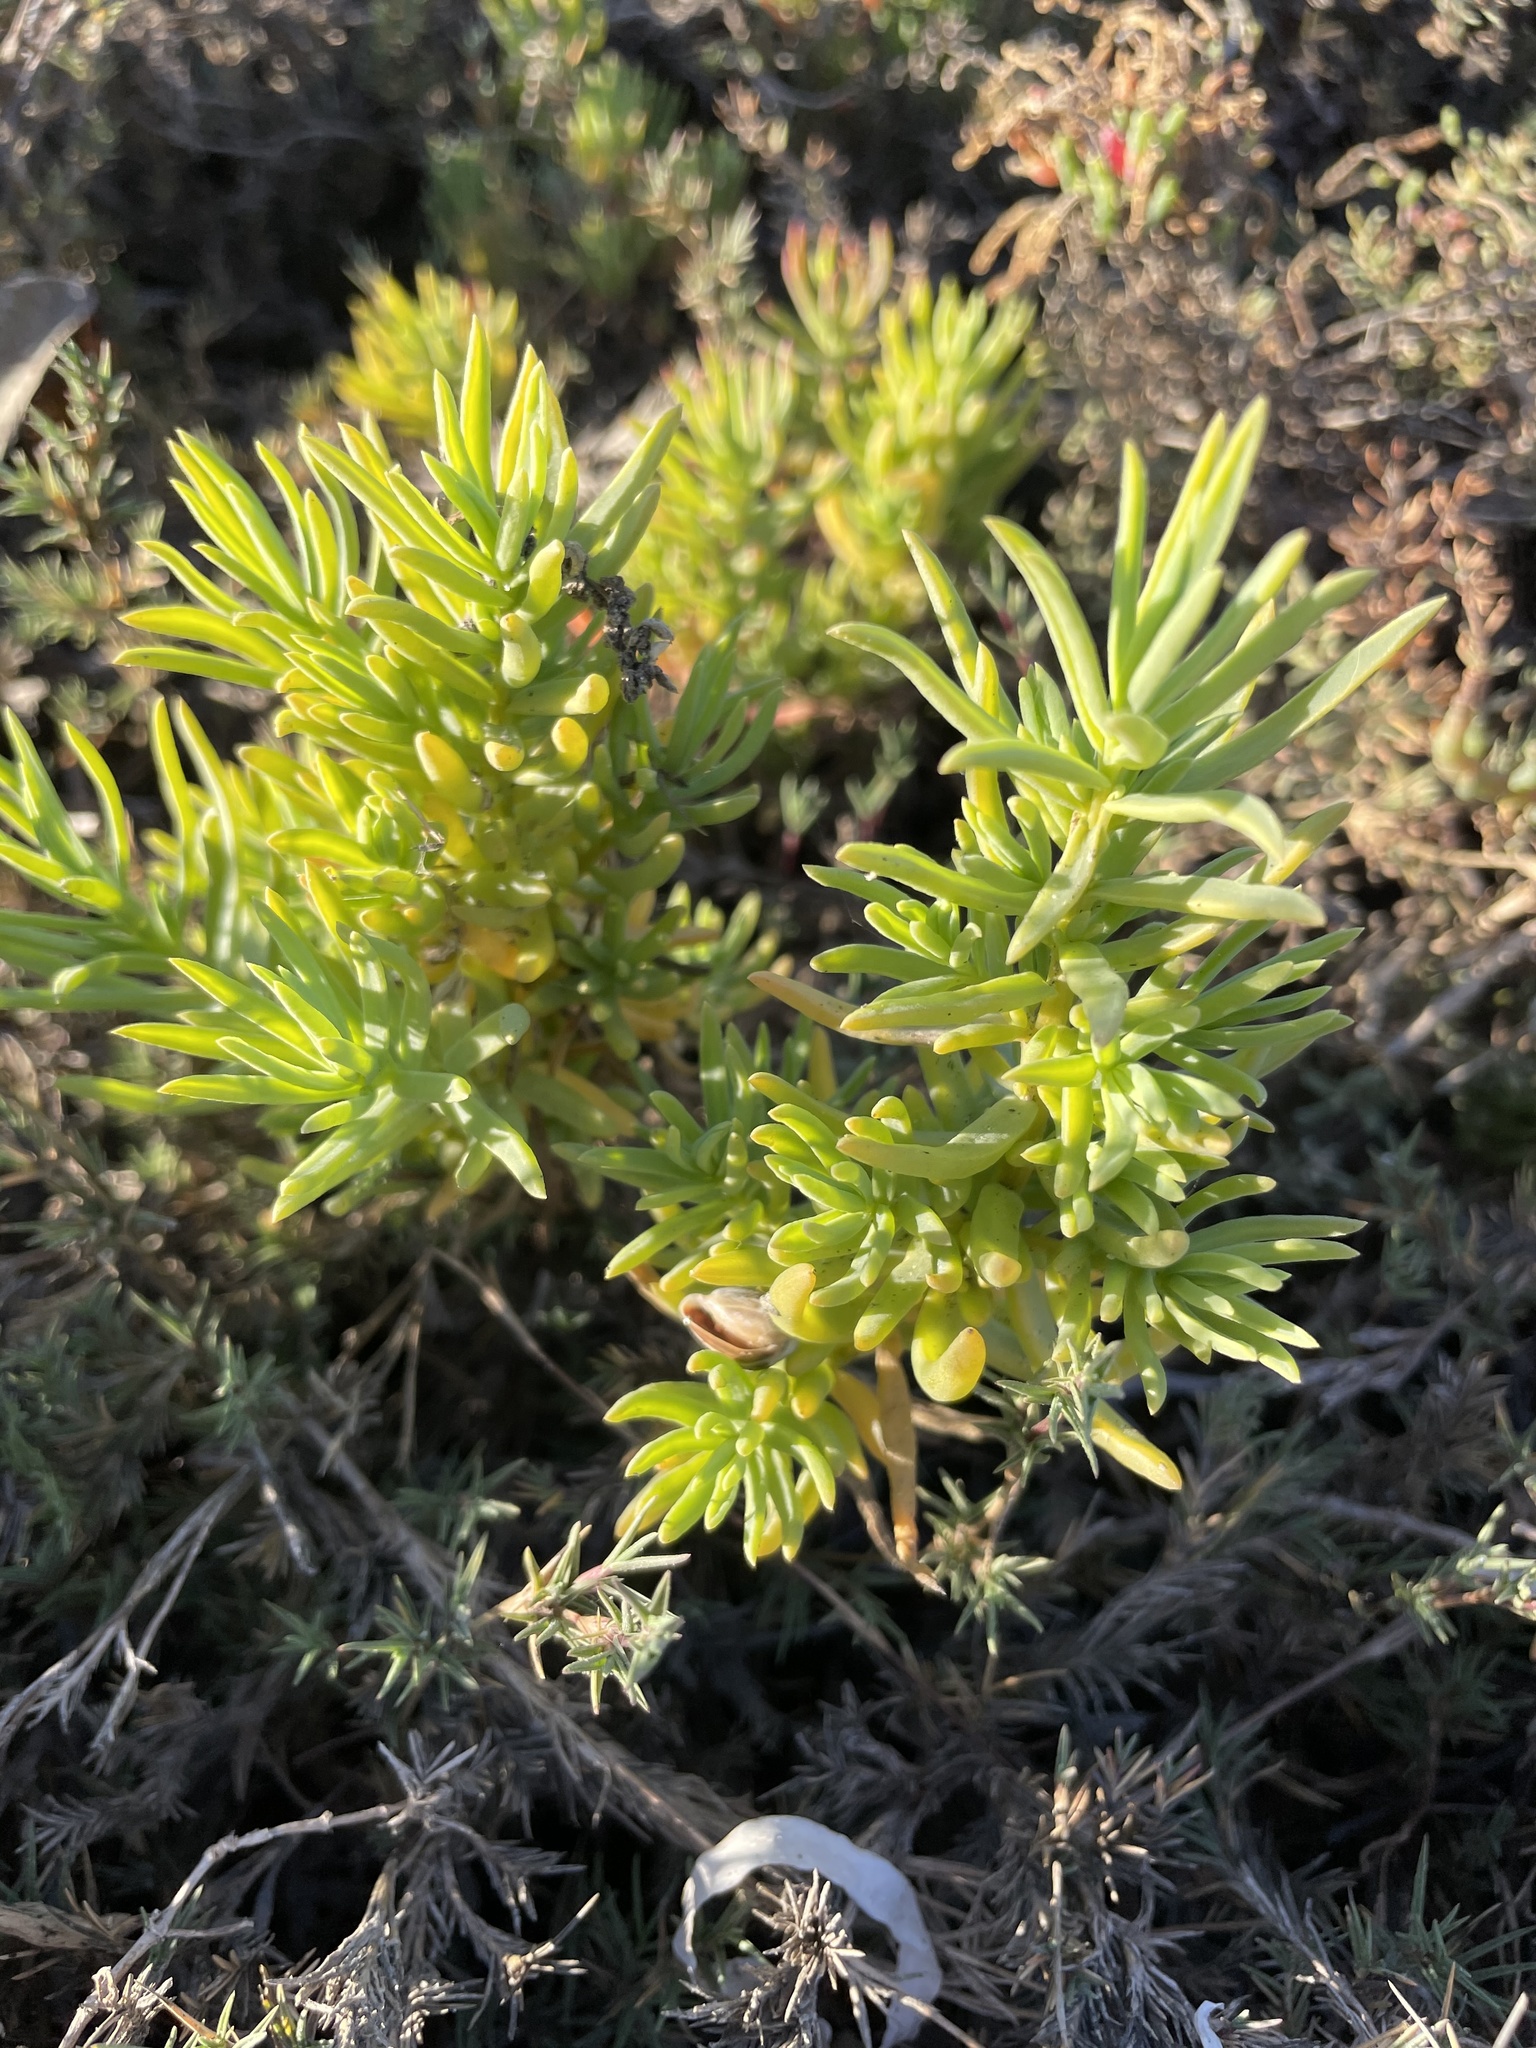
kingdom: Plantae
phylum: Tracheophyta
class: Magnoliopsida
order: Caryophyllales
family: Amaranthaceae
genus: Suaeda
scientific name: Suaeda taxifolia
